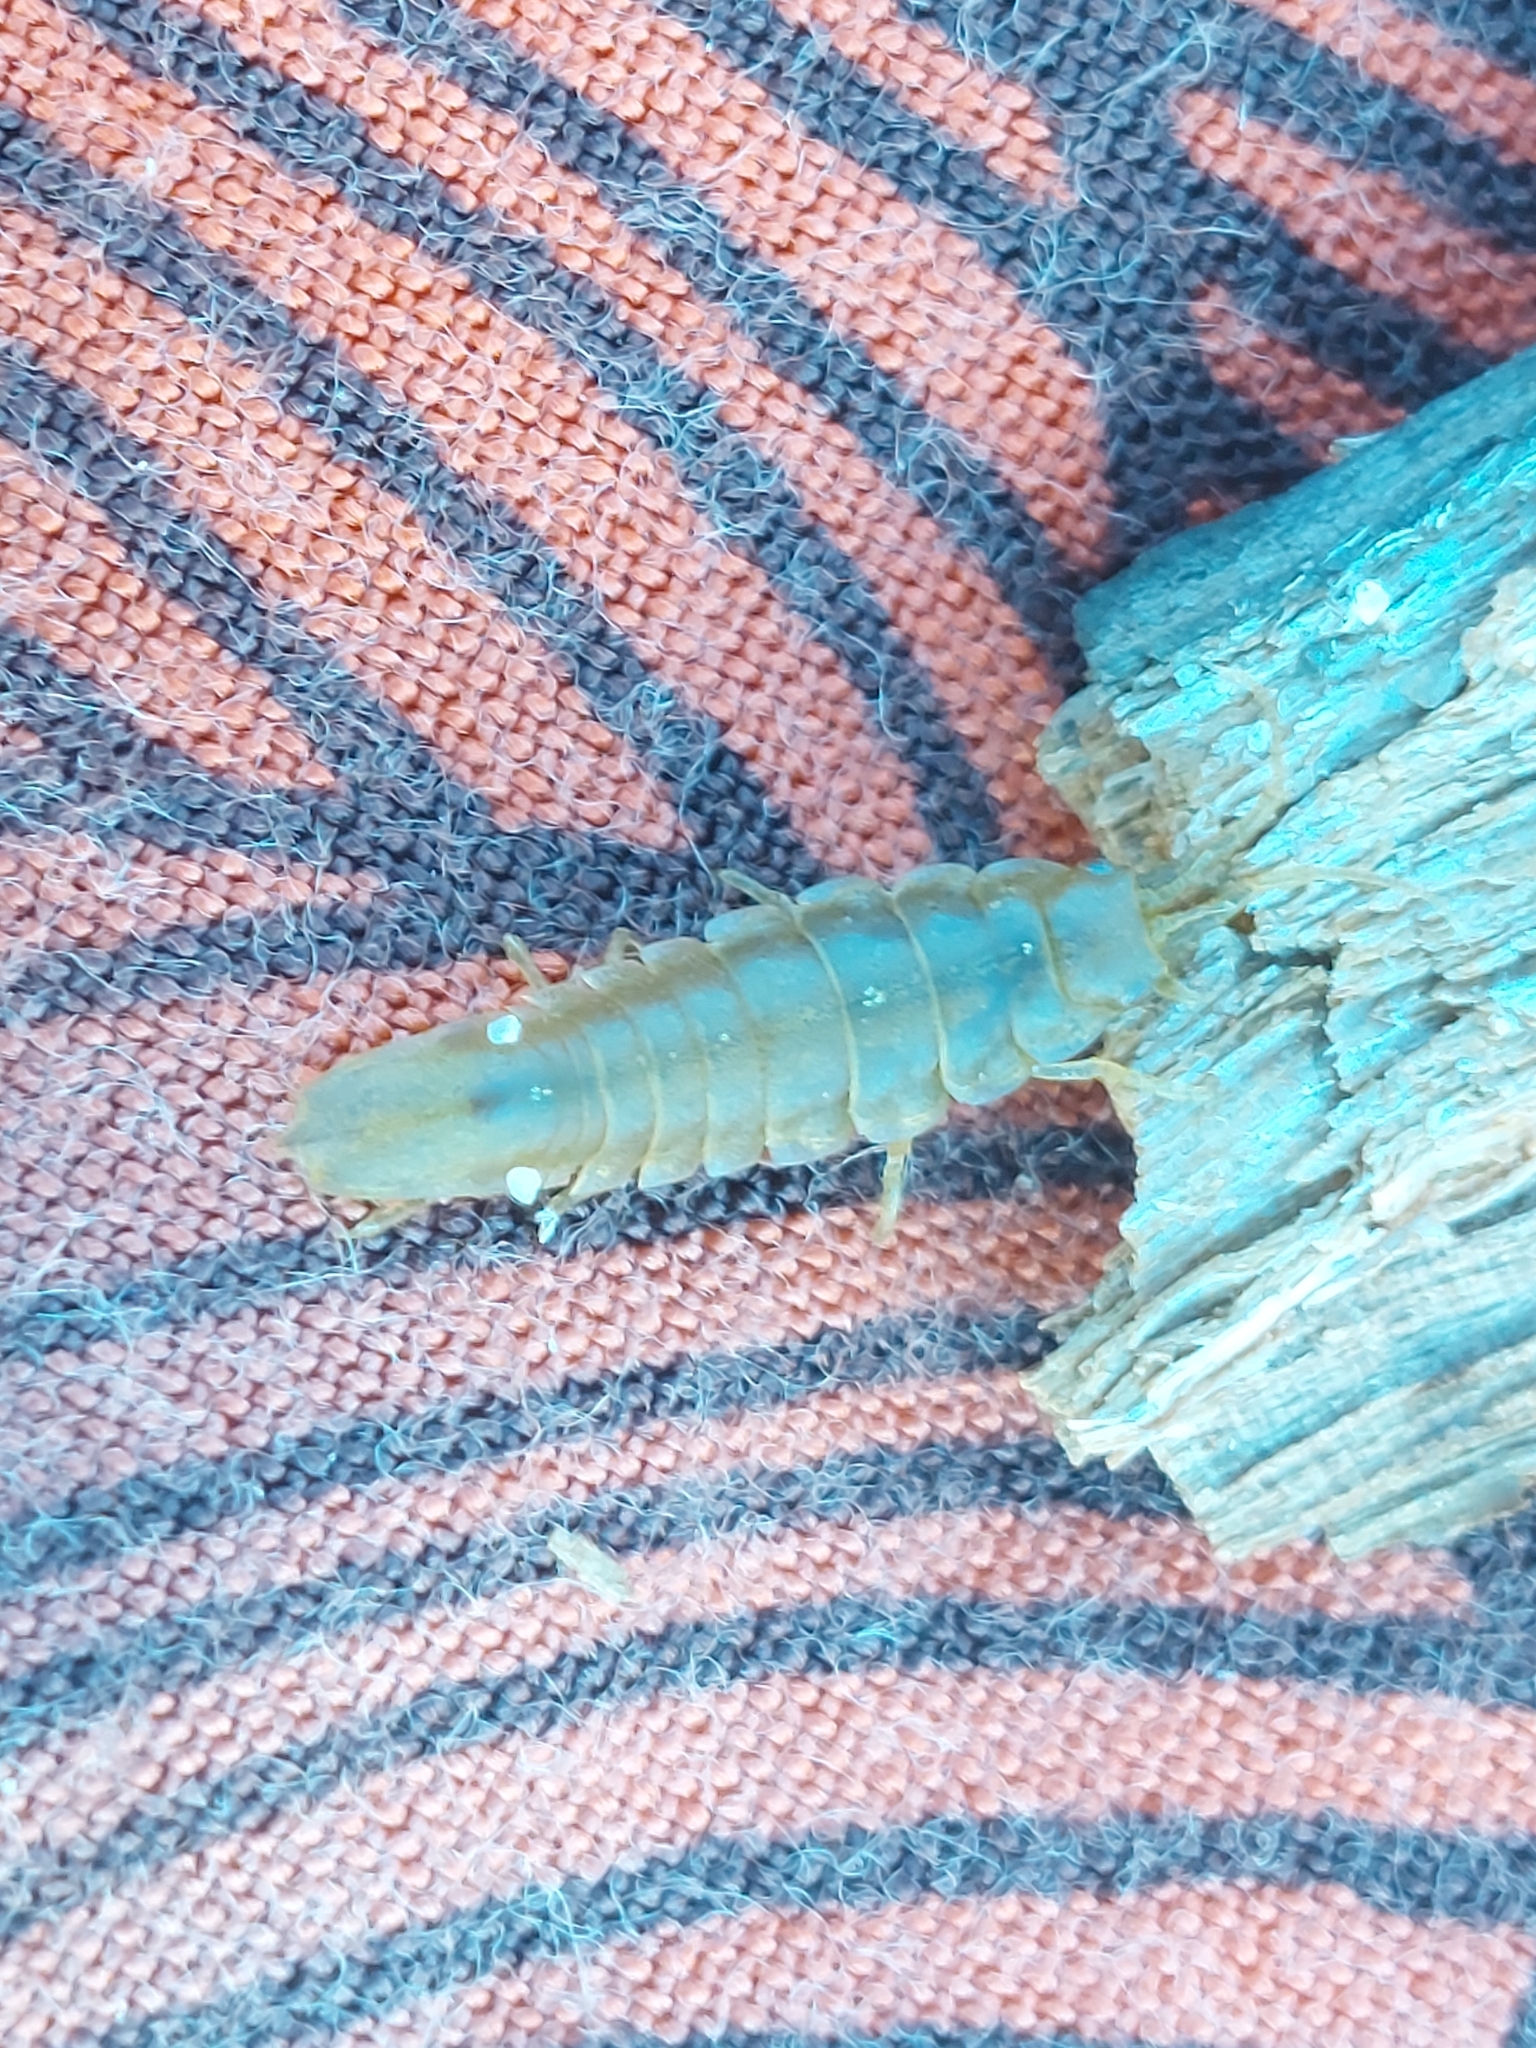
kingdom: Animalia
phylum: Arthropoda
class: Malacostraca
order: Isopoda
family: Idoteidae
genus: Idotea
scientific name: Idotea balthica
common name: Baltic isopod
